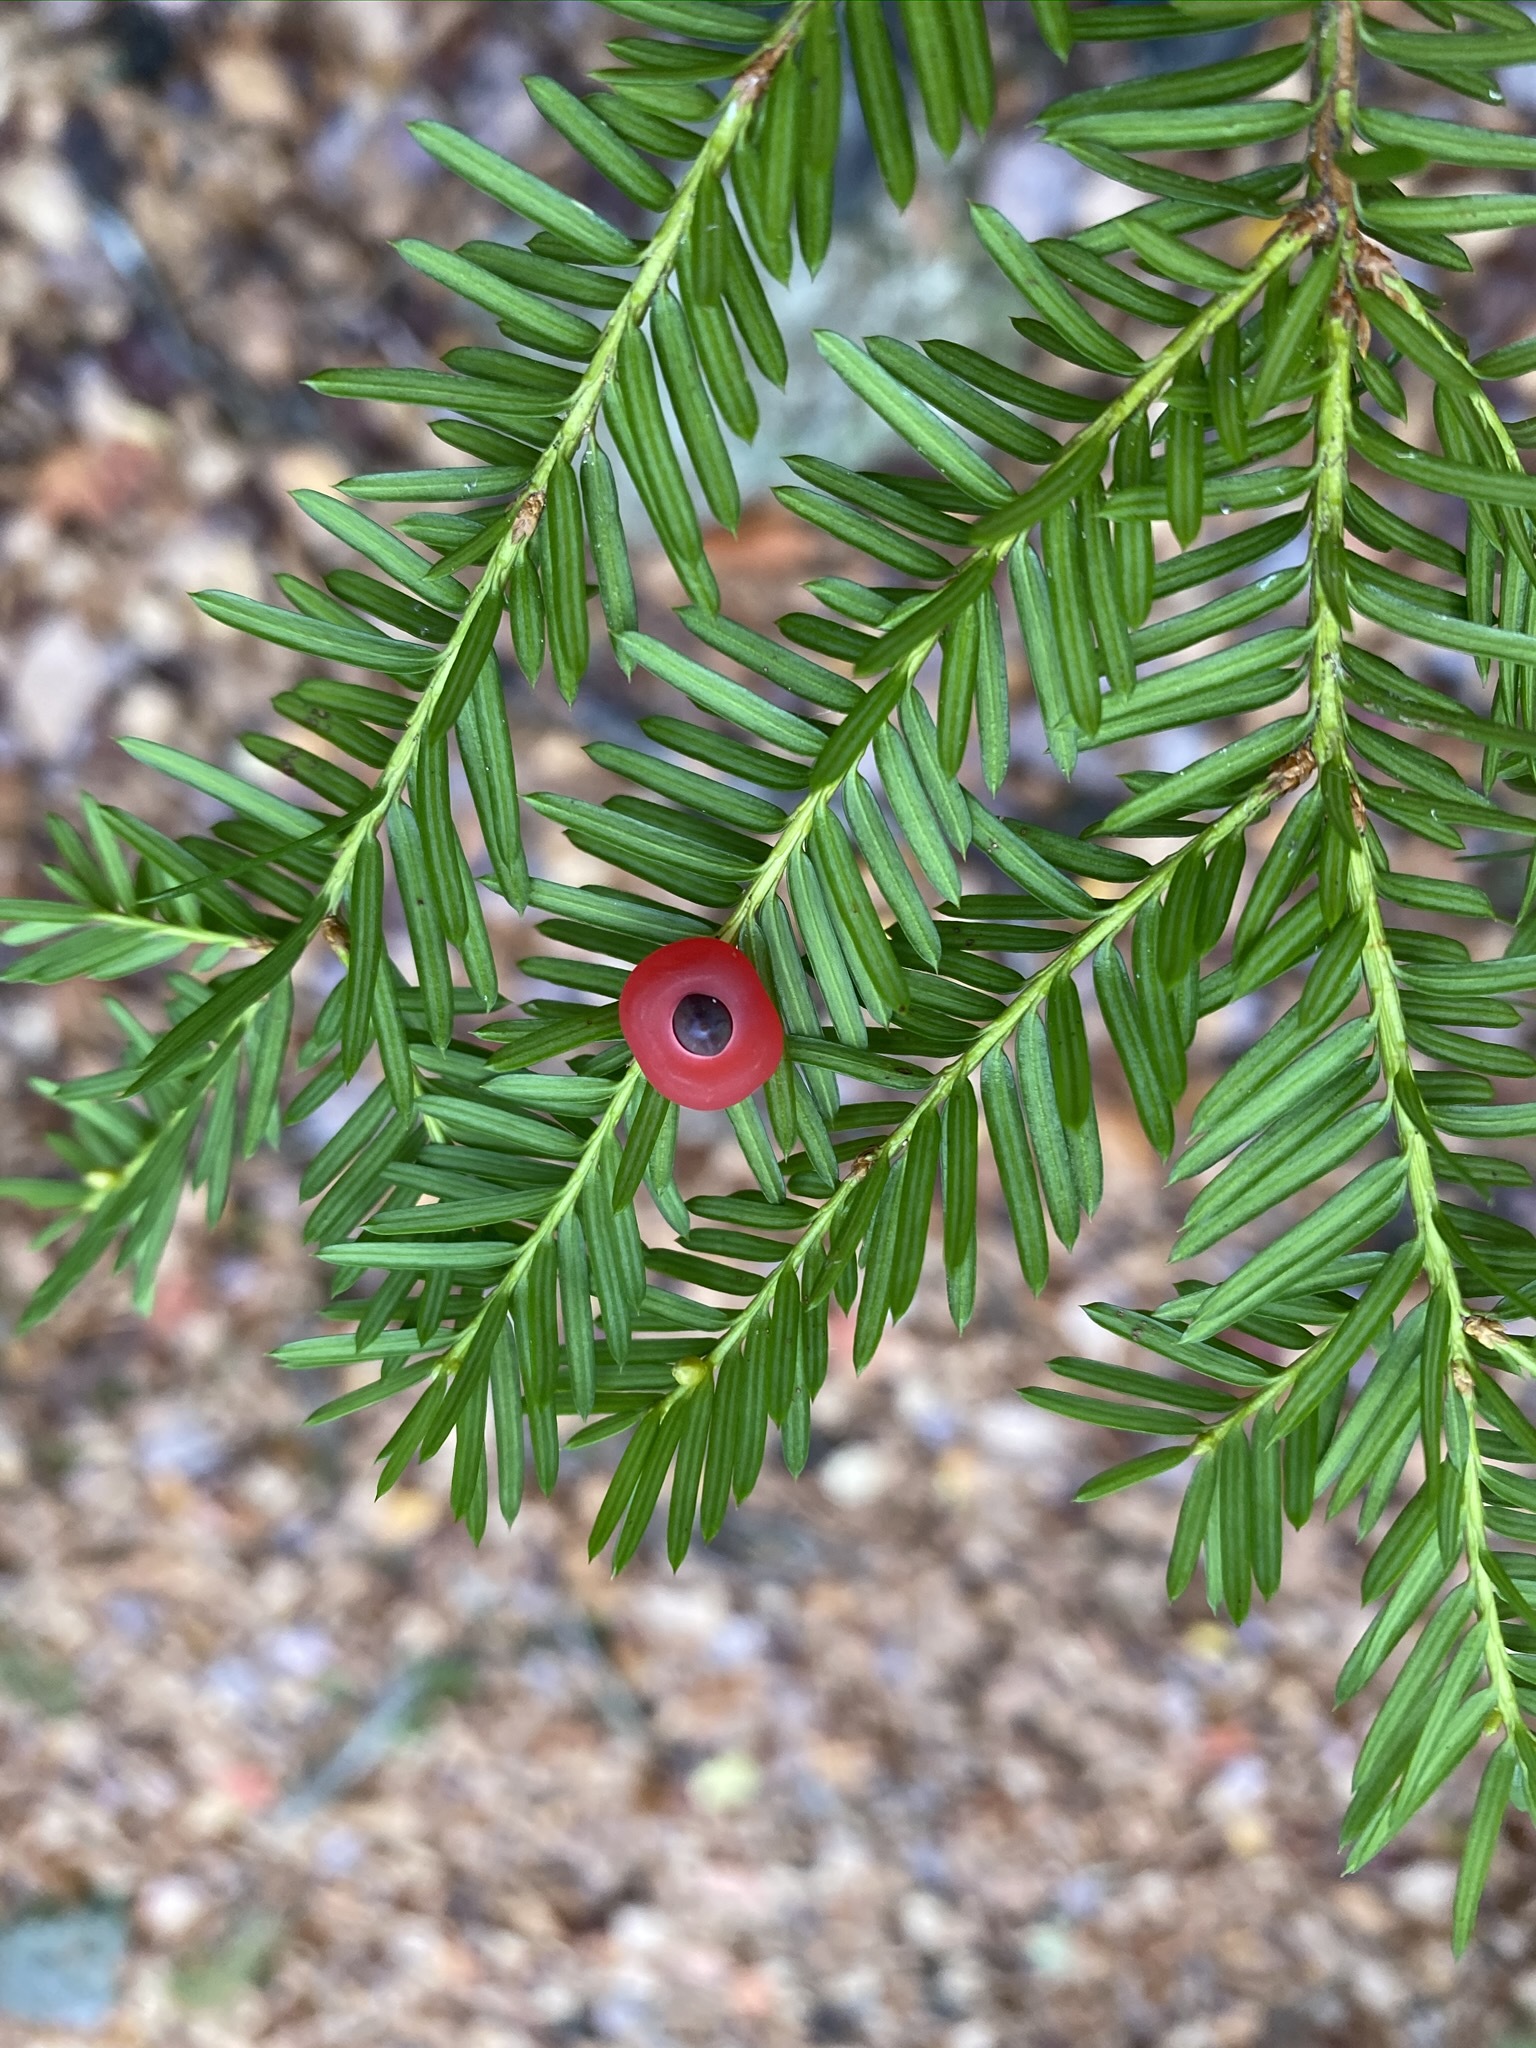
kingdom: Plantae
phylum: Tracheophyta
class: Pinopsida
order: Pinales
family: Taxaceae
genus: Taxus
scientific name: Taxus canadensis
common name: American yew
